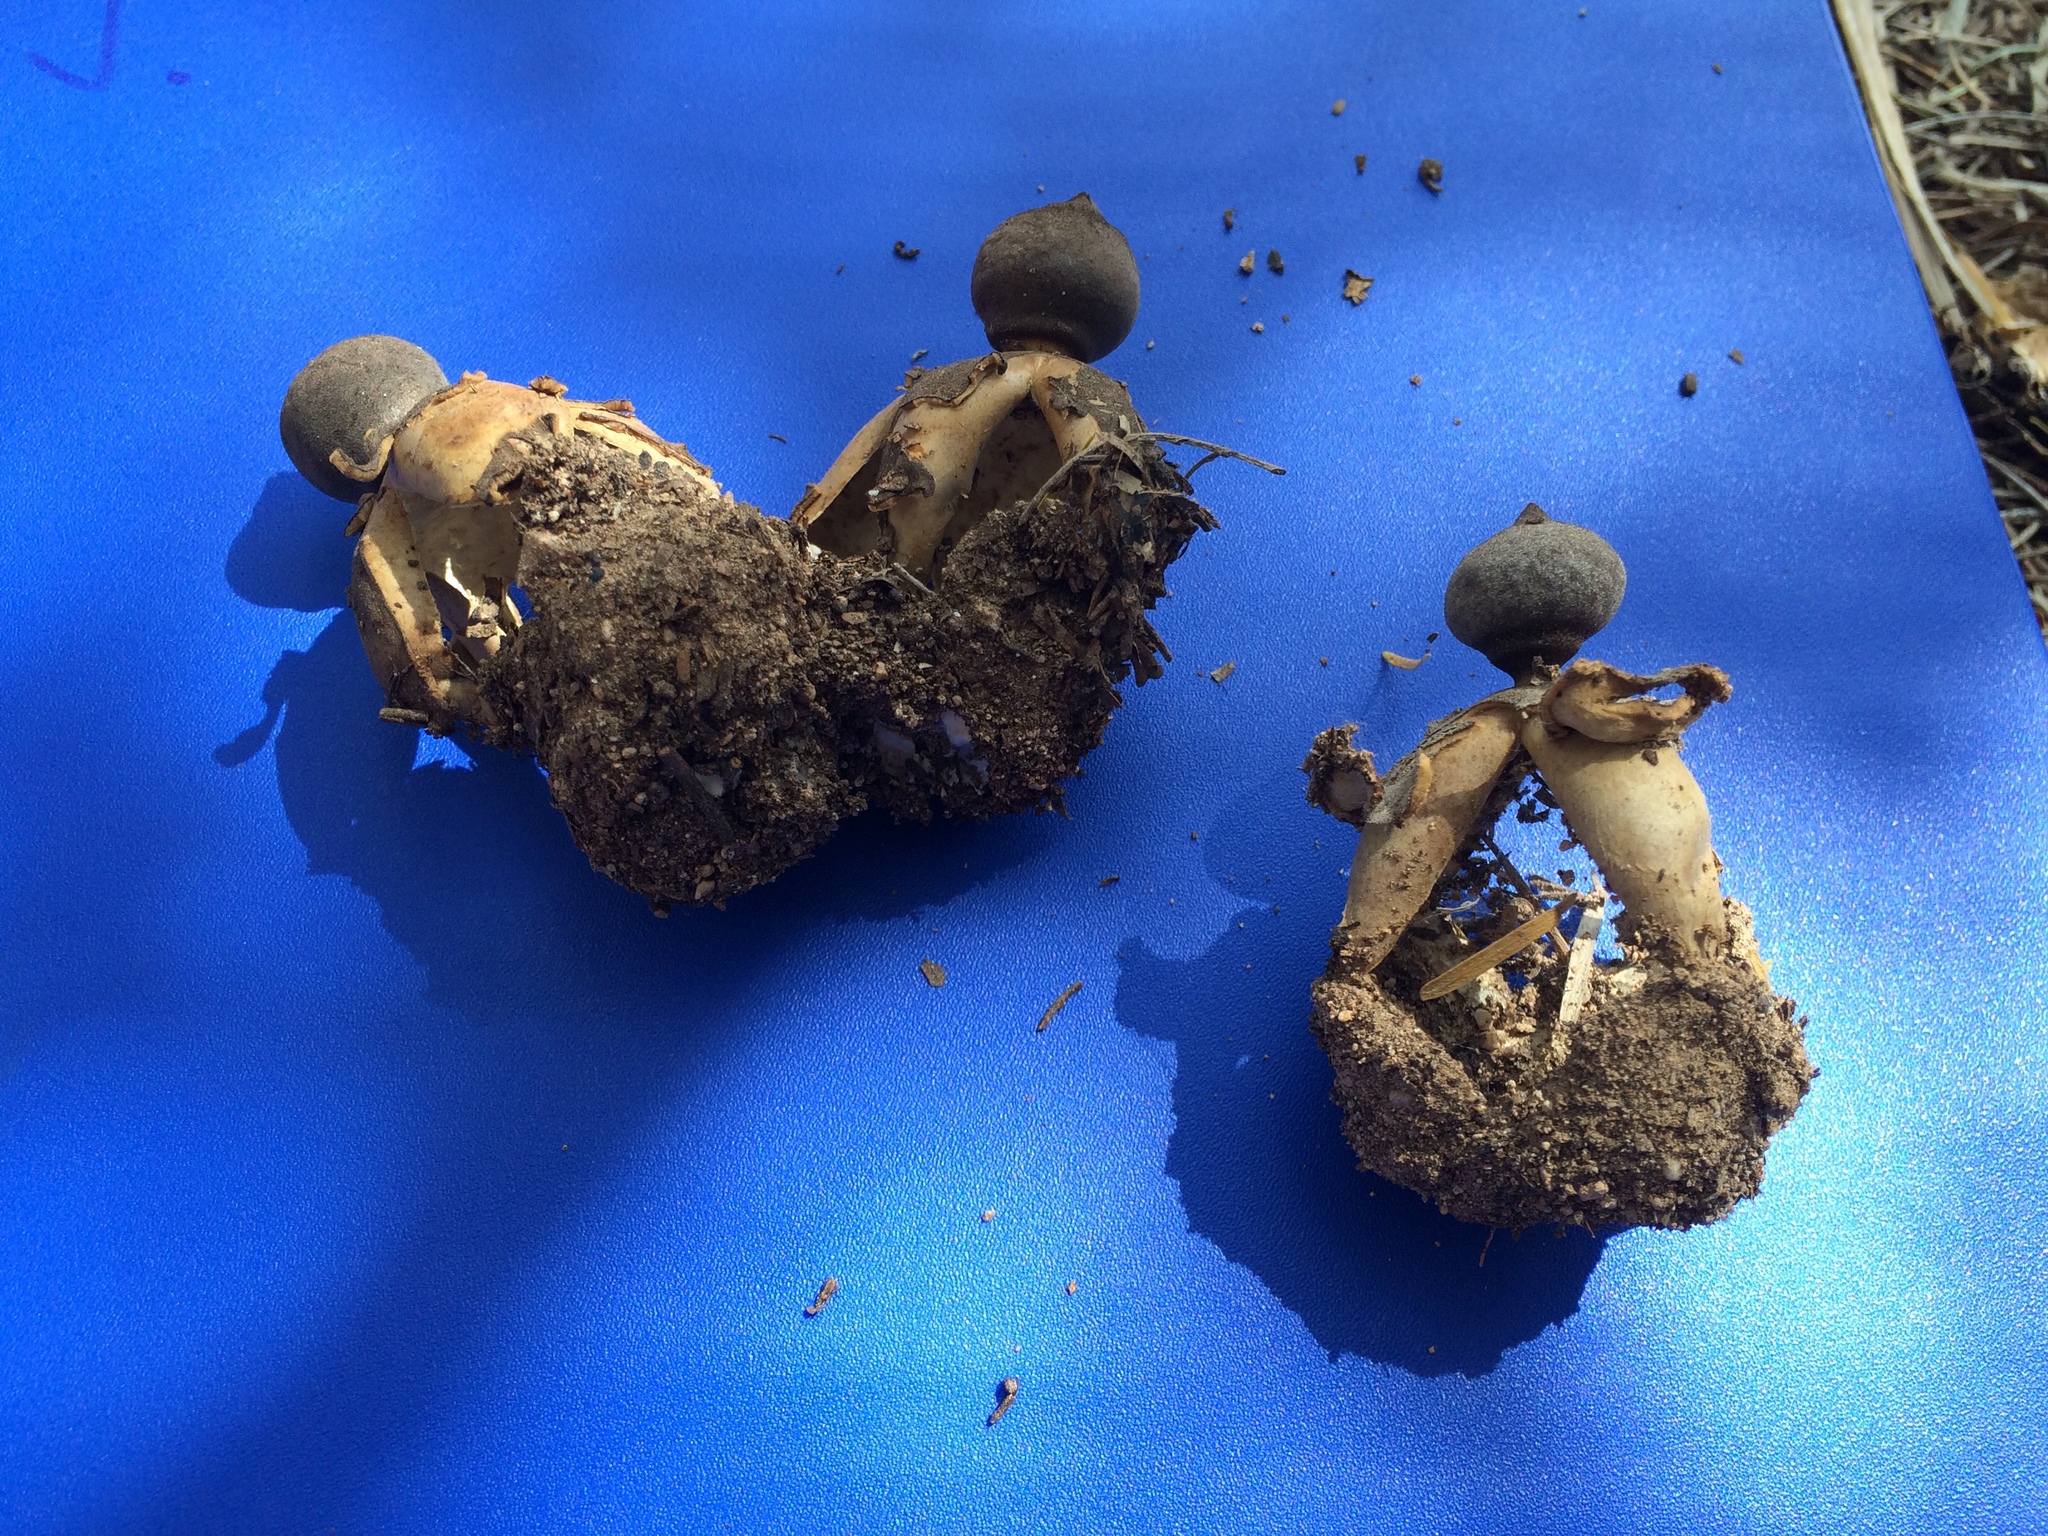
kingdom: Fungi
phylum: Basidiomycota
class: Agaricomycetes
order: Geastrales
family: Geastraceae
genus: Geastrum
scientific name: Geastrum fornicatum
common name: Arched earthstar
